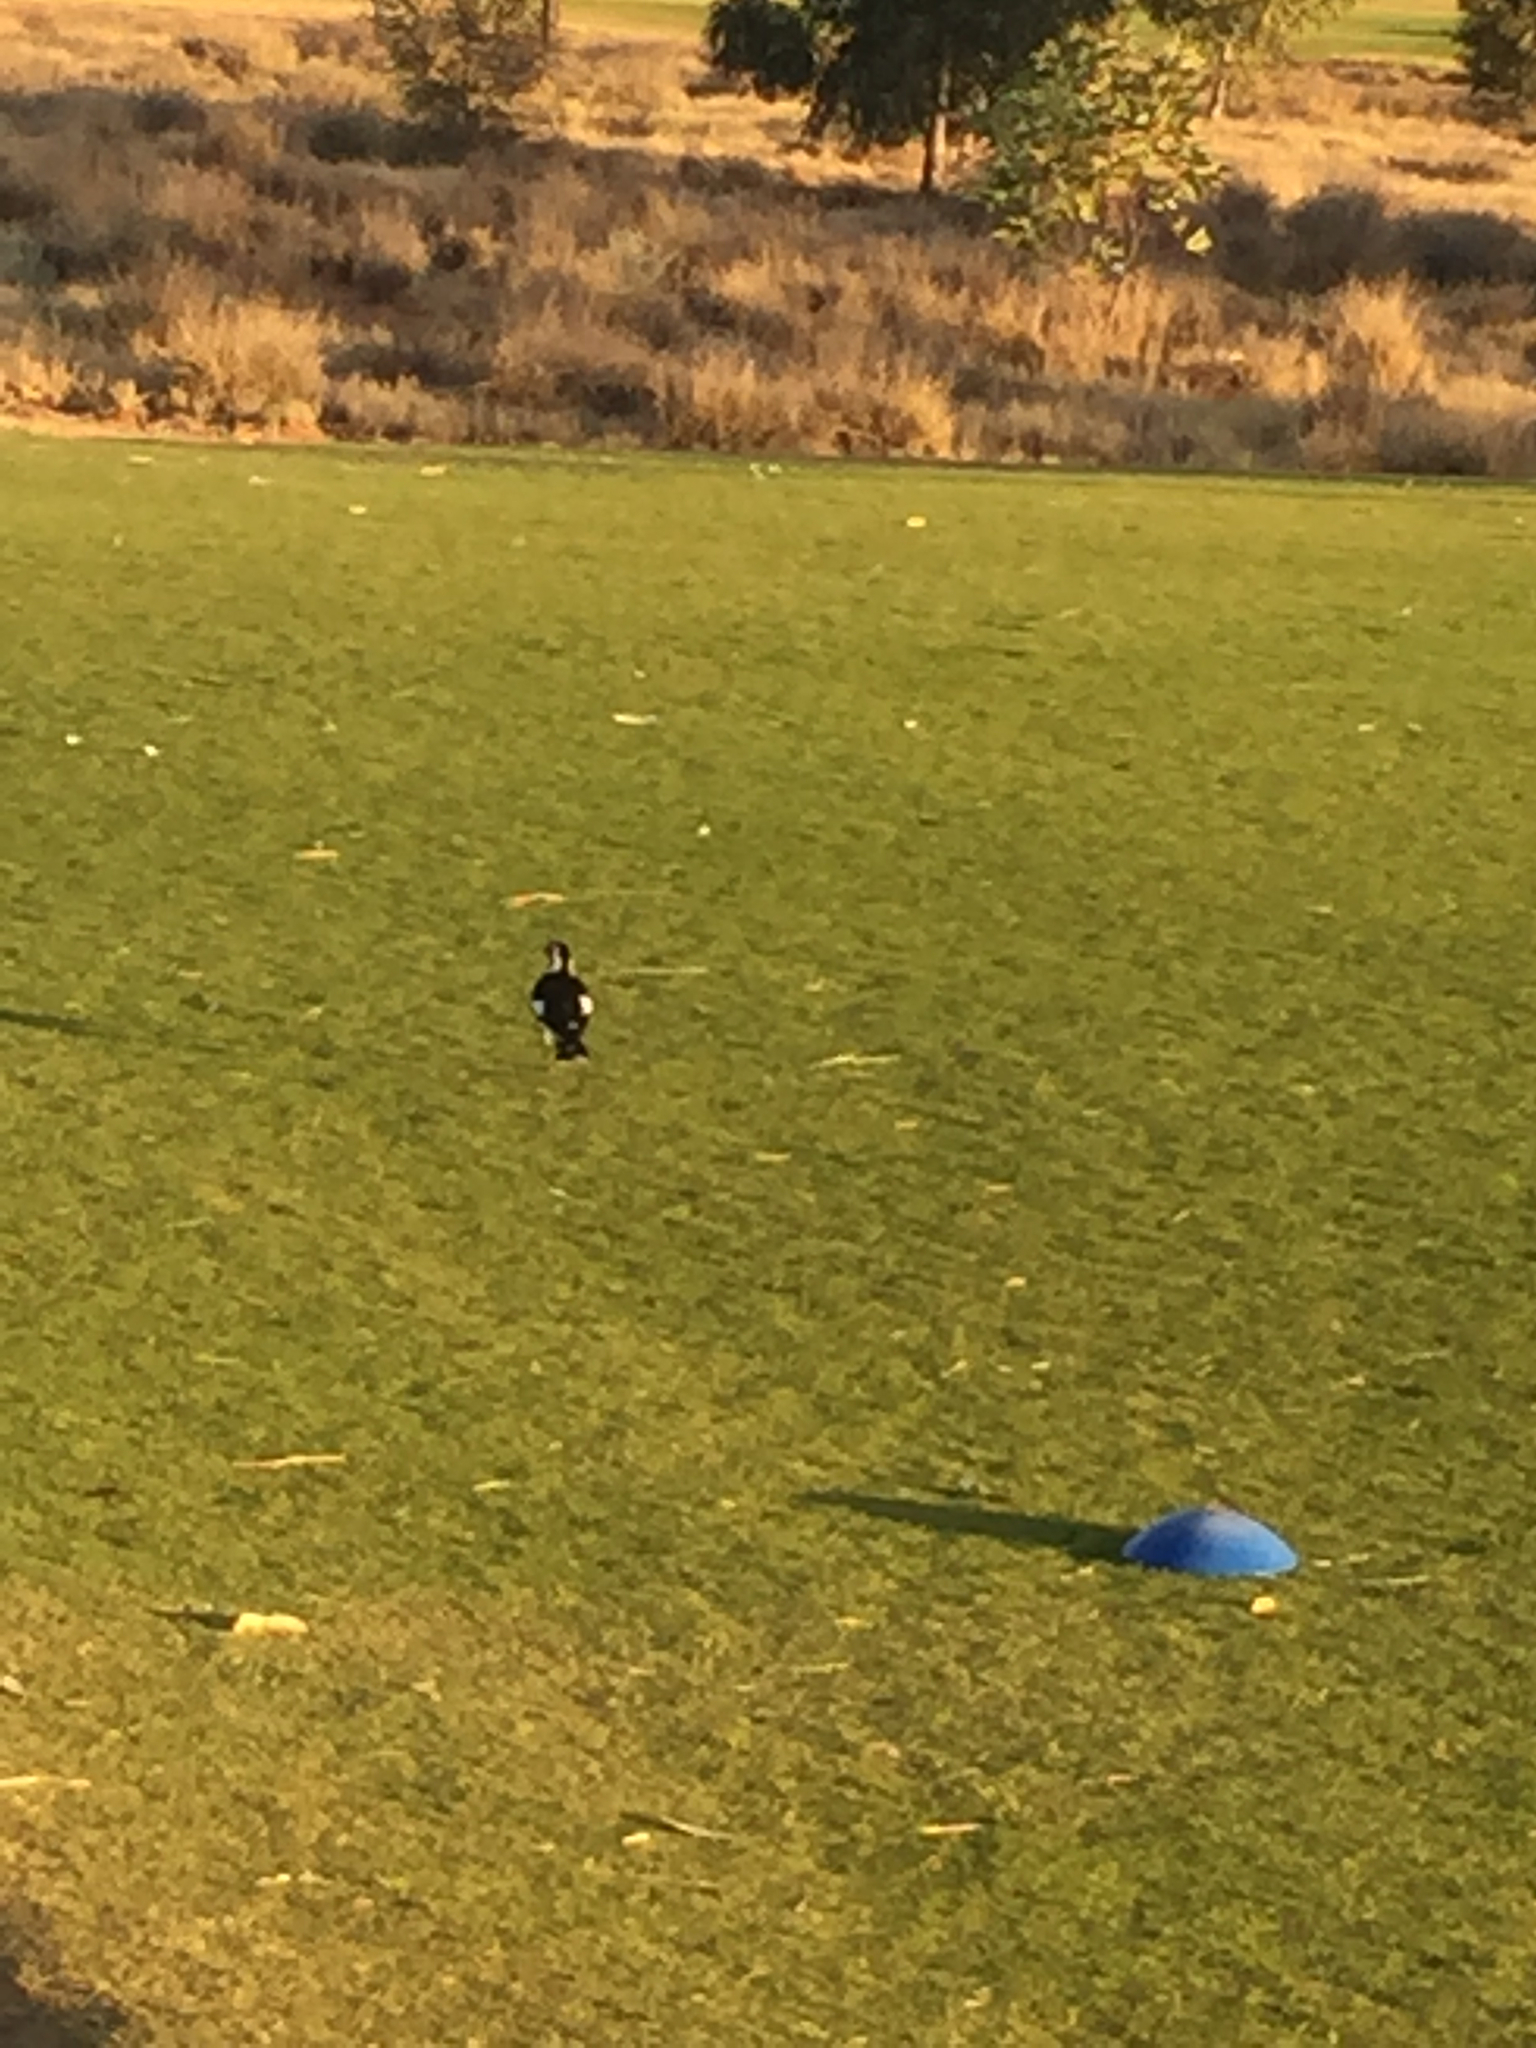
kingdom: Animalia
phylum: Chordata
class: Aves
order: Passeriformes
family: Monarchidae
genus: Grallina
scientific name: Grallina cyanoleuca
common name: Magpie-lark
